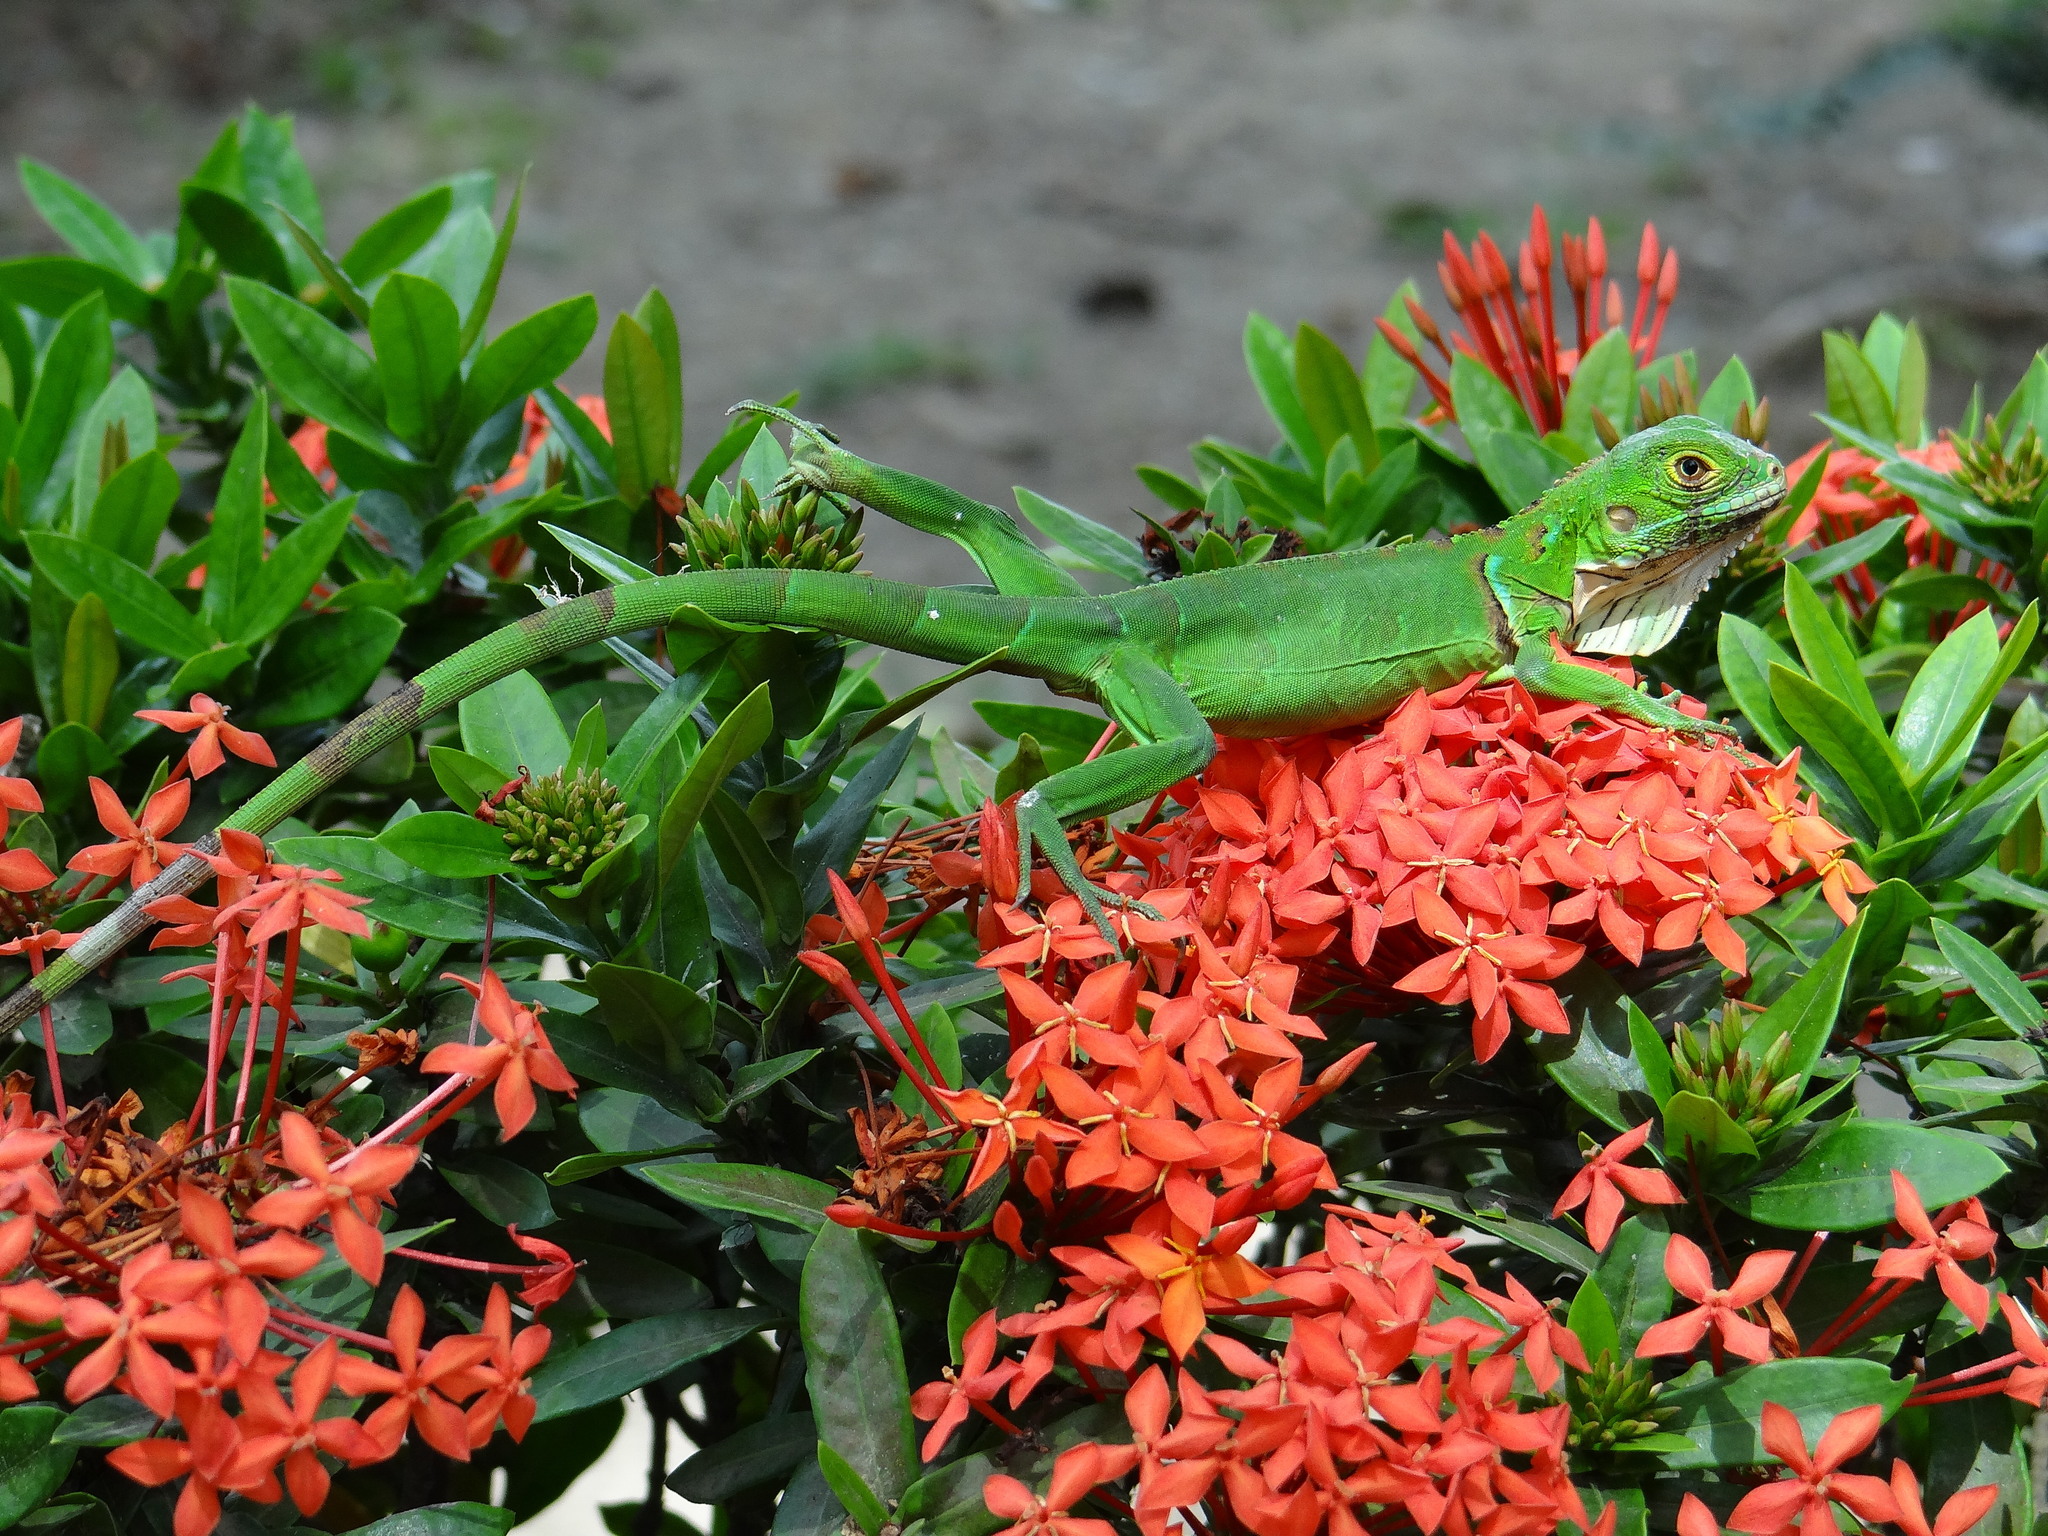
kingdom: Animalia
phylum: Chordata
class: Squamata
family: Iguanidae
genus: Iguana
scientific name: Iguana iguana
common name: Green iguana
